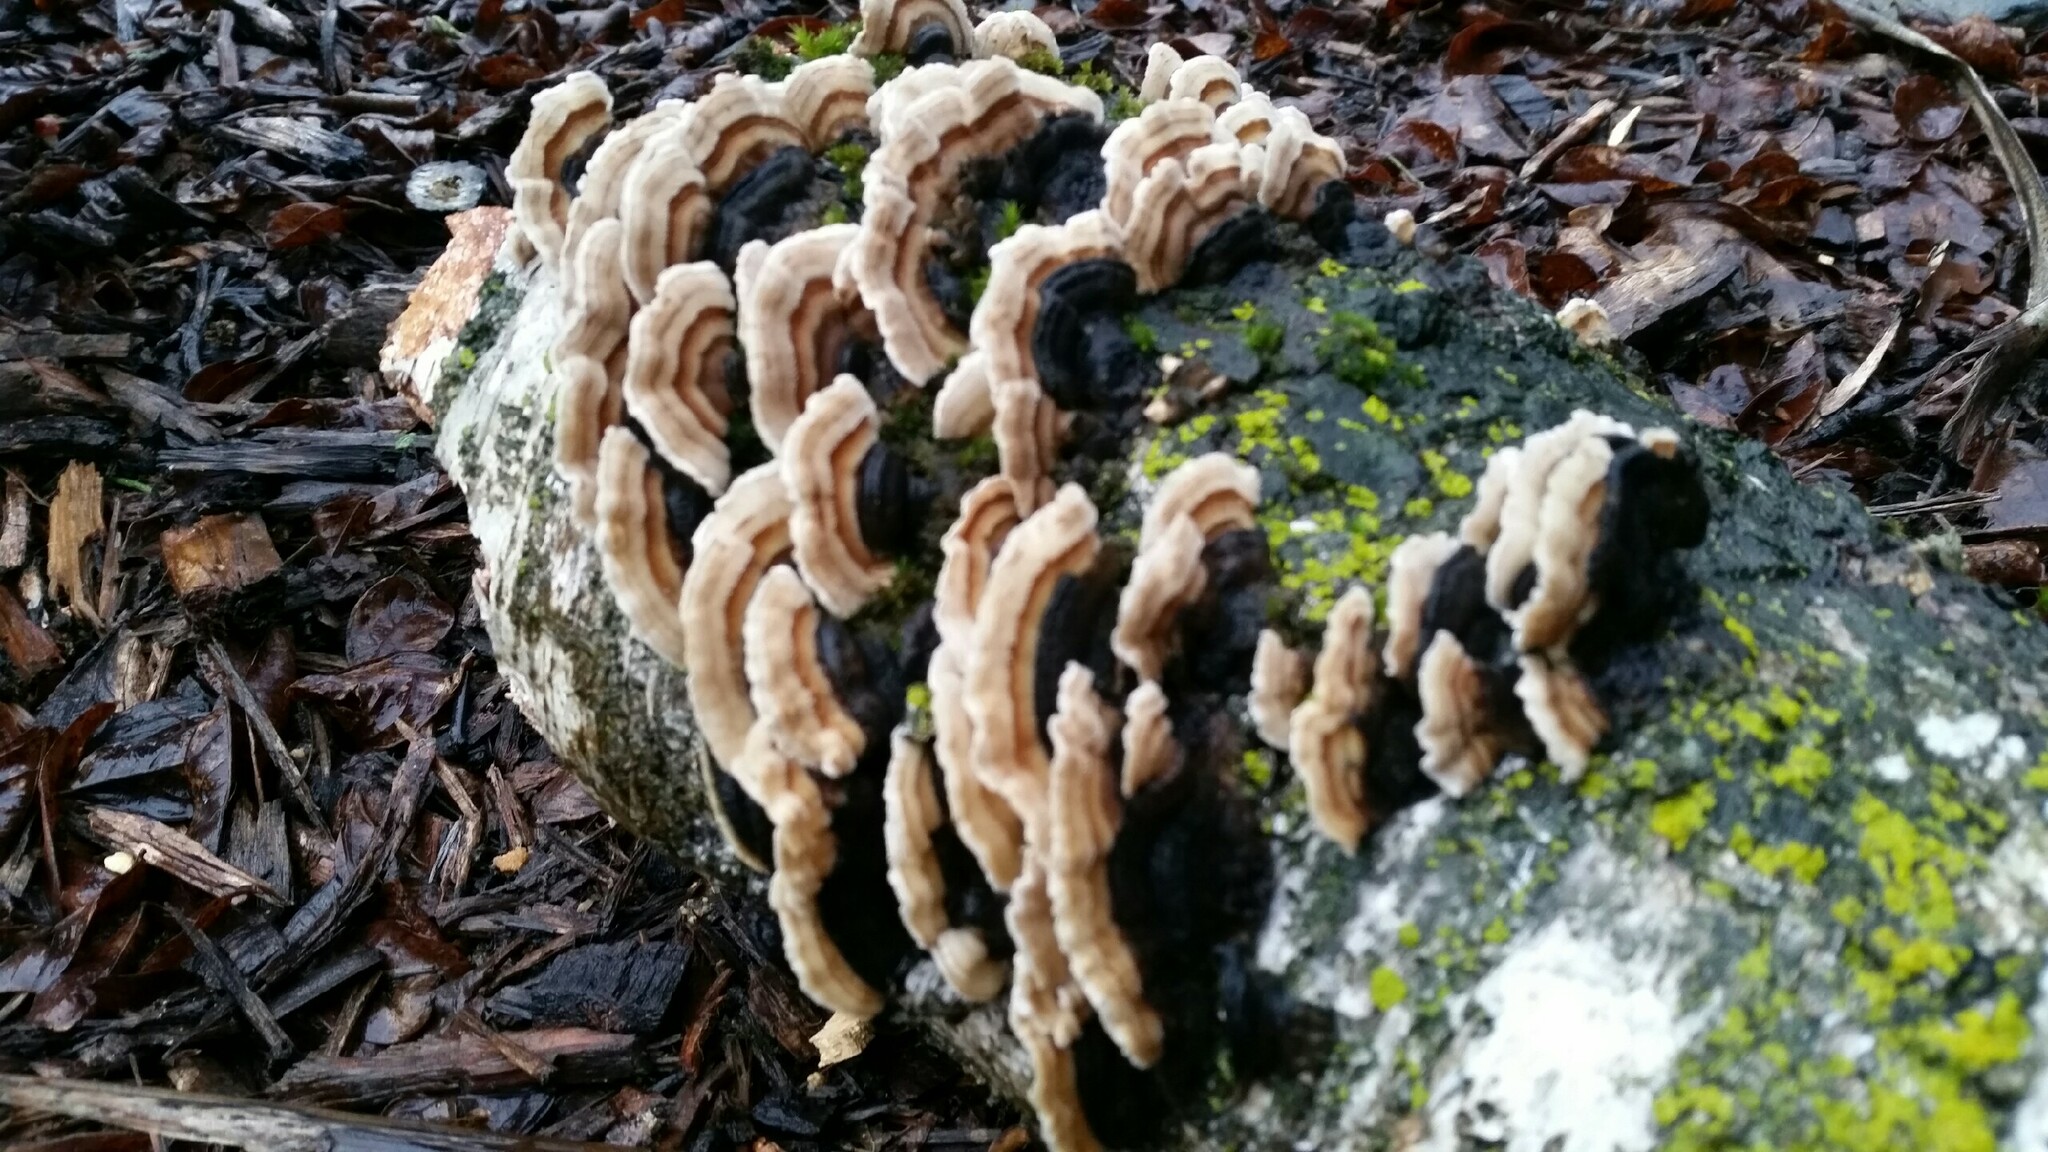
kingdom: Fungi
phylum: Basidiomycota
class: Agaricomycetes
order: Polyporales
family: Polyporaceae
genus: Trametes
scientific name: Trametes versicolor
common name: Turkeytail
